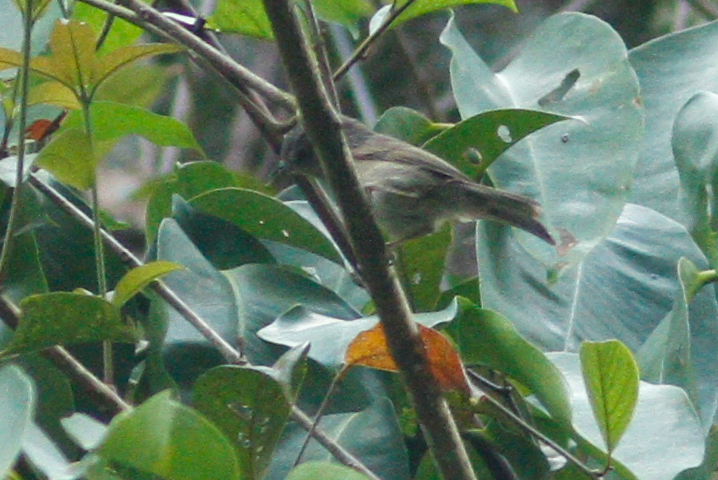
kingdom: Animalia
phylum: Chordata
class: Aves
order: Passeriformes
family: Pellorneidae
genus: Alcippe
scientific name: Alcippe poioicephala
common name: Brown-cheeked fulvetta
